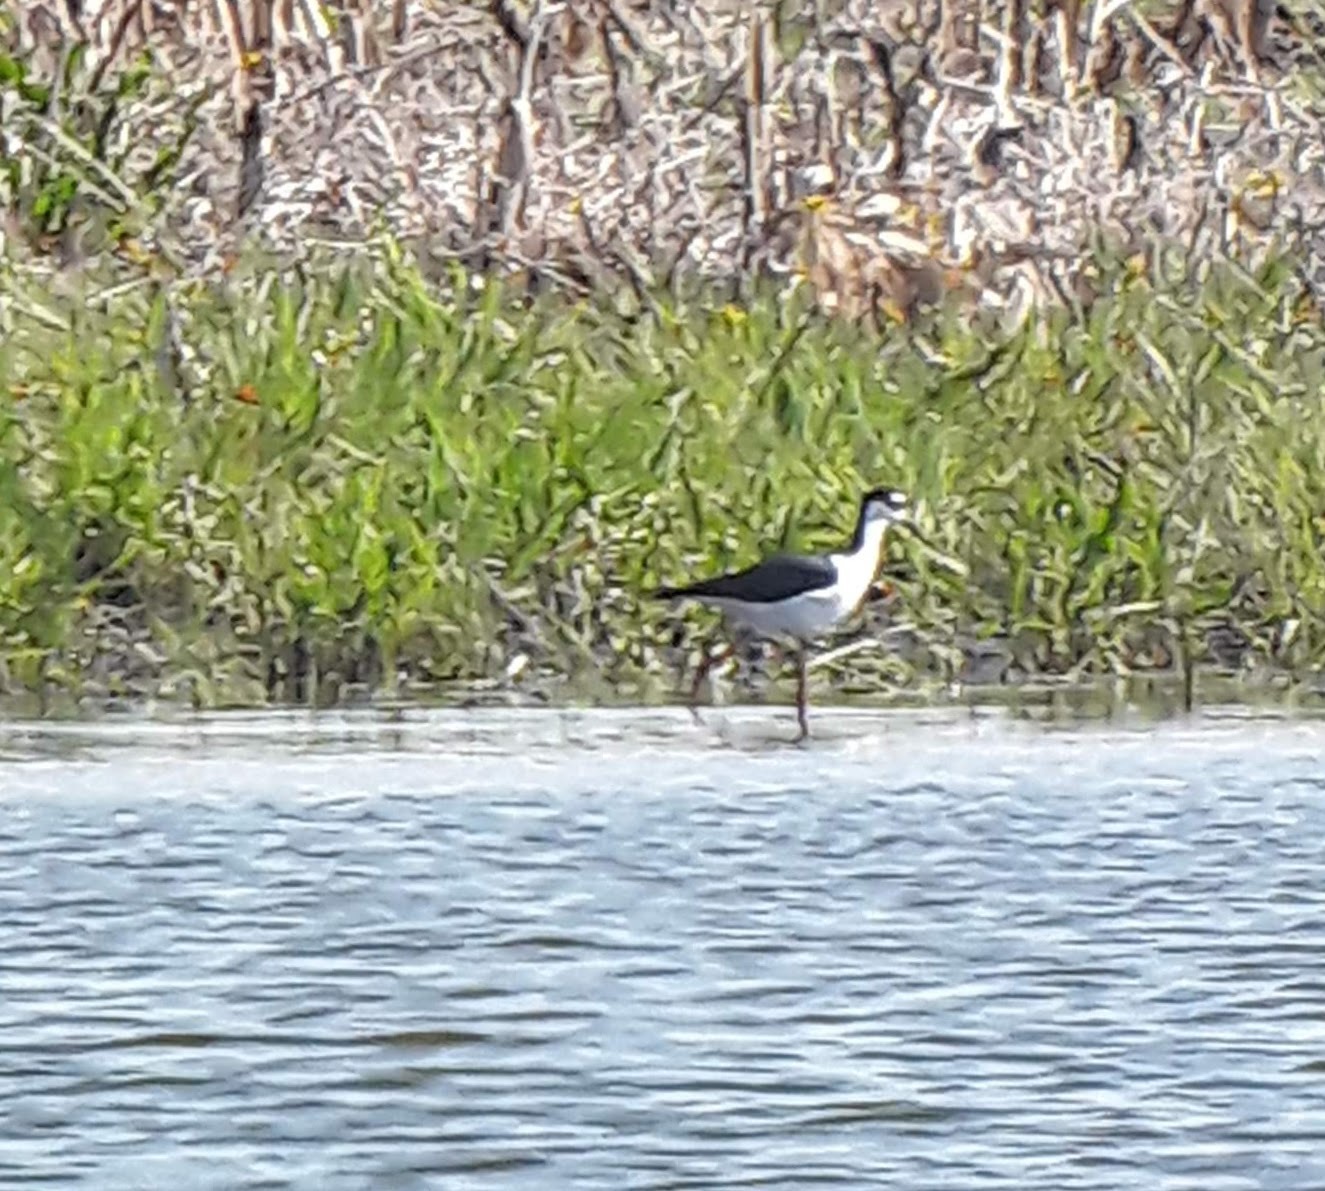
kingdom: Animalia
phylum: Chordata
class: Aves
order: Charadriiformes
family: Recurvirostridae
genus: Himantopus
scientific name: Himantopus mexicanus
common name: Black-necked stilt
